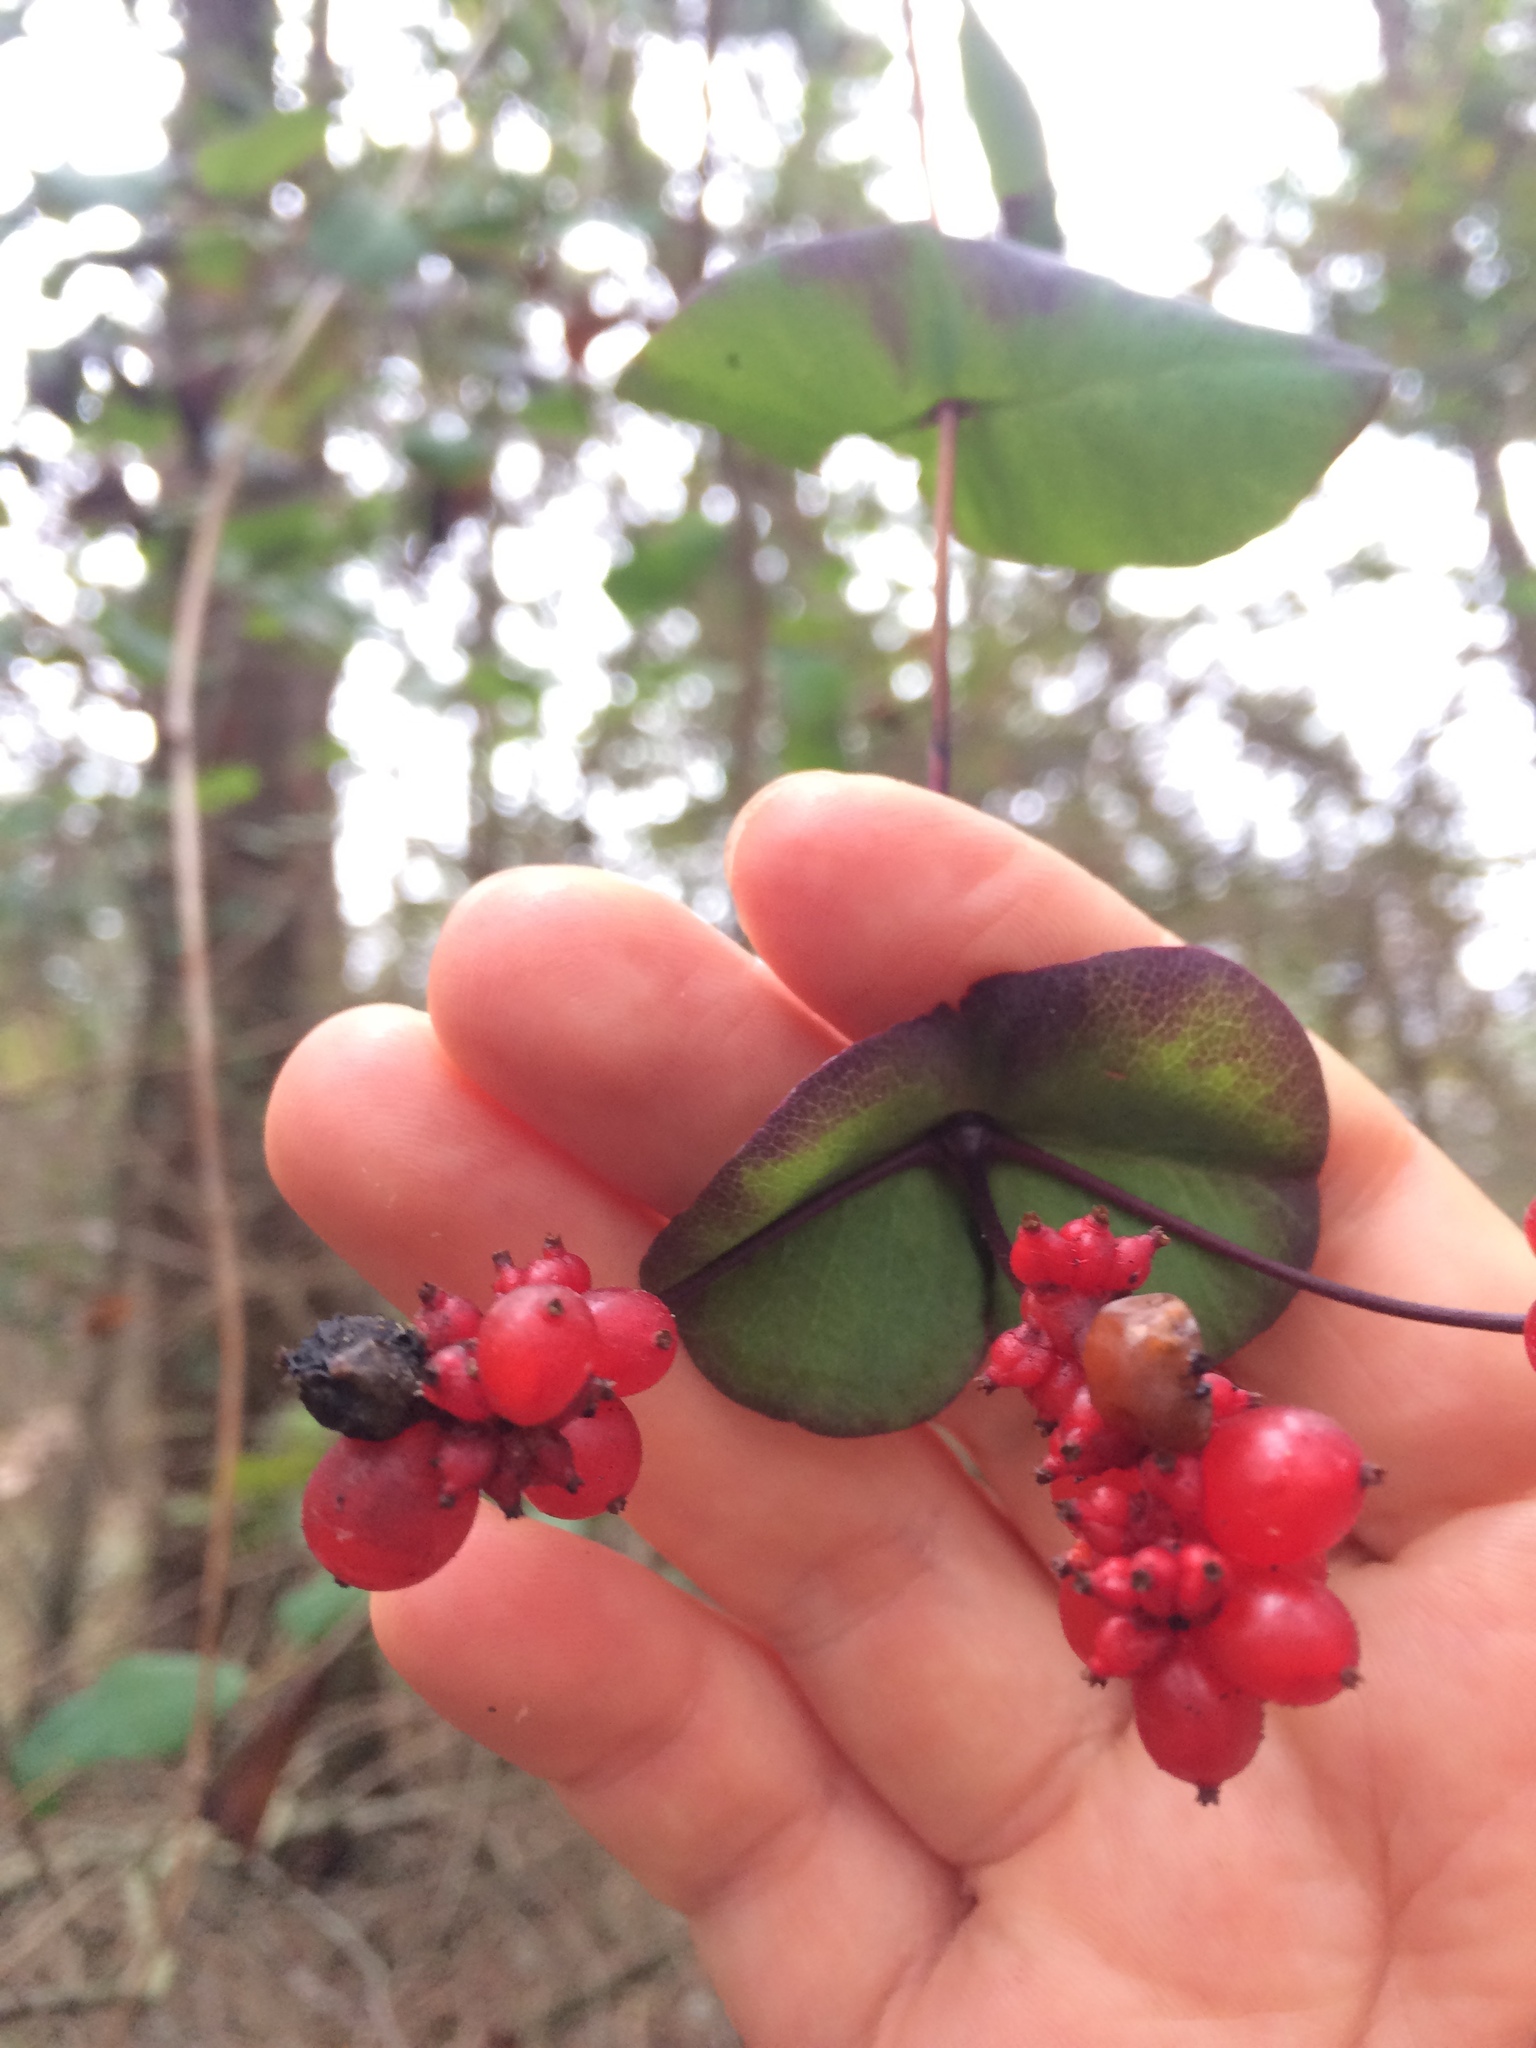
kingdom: Plantae
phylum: Tracheophyta
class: Magnoliopsida
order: Dipsacales
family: Caprifoliaceae
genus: Lonicera
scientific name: Lonicera hispidula
